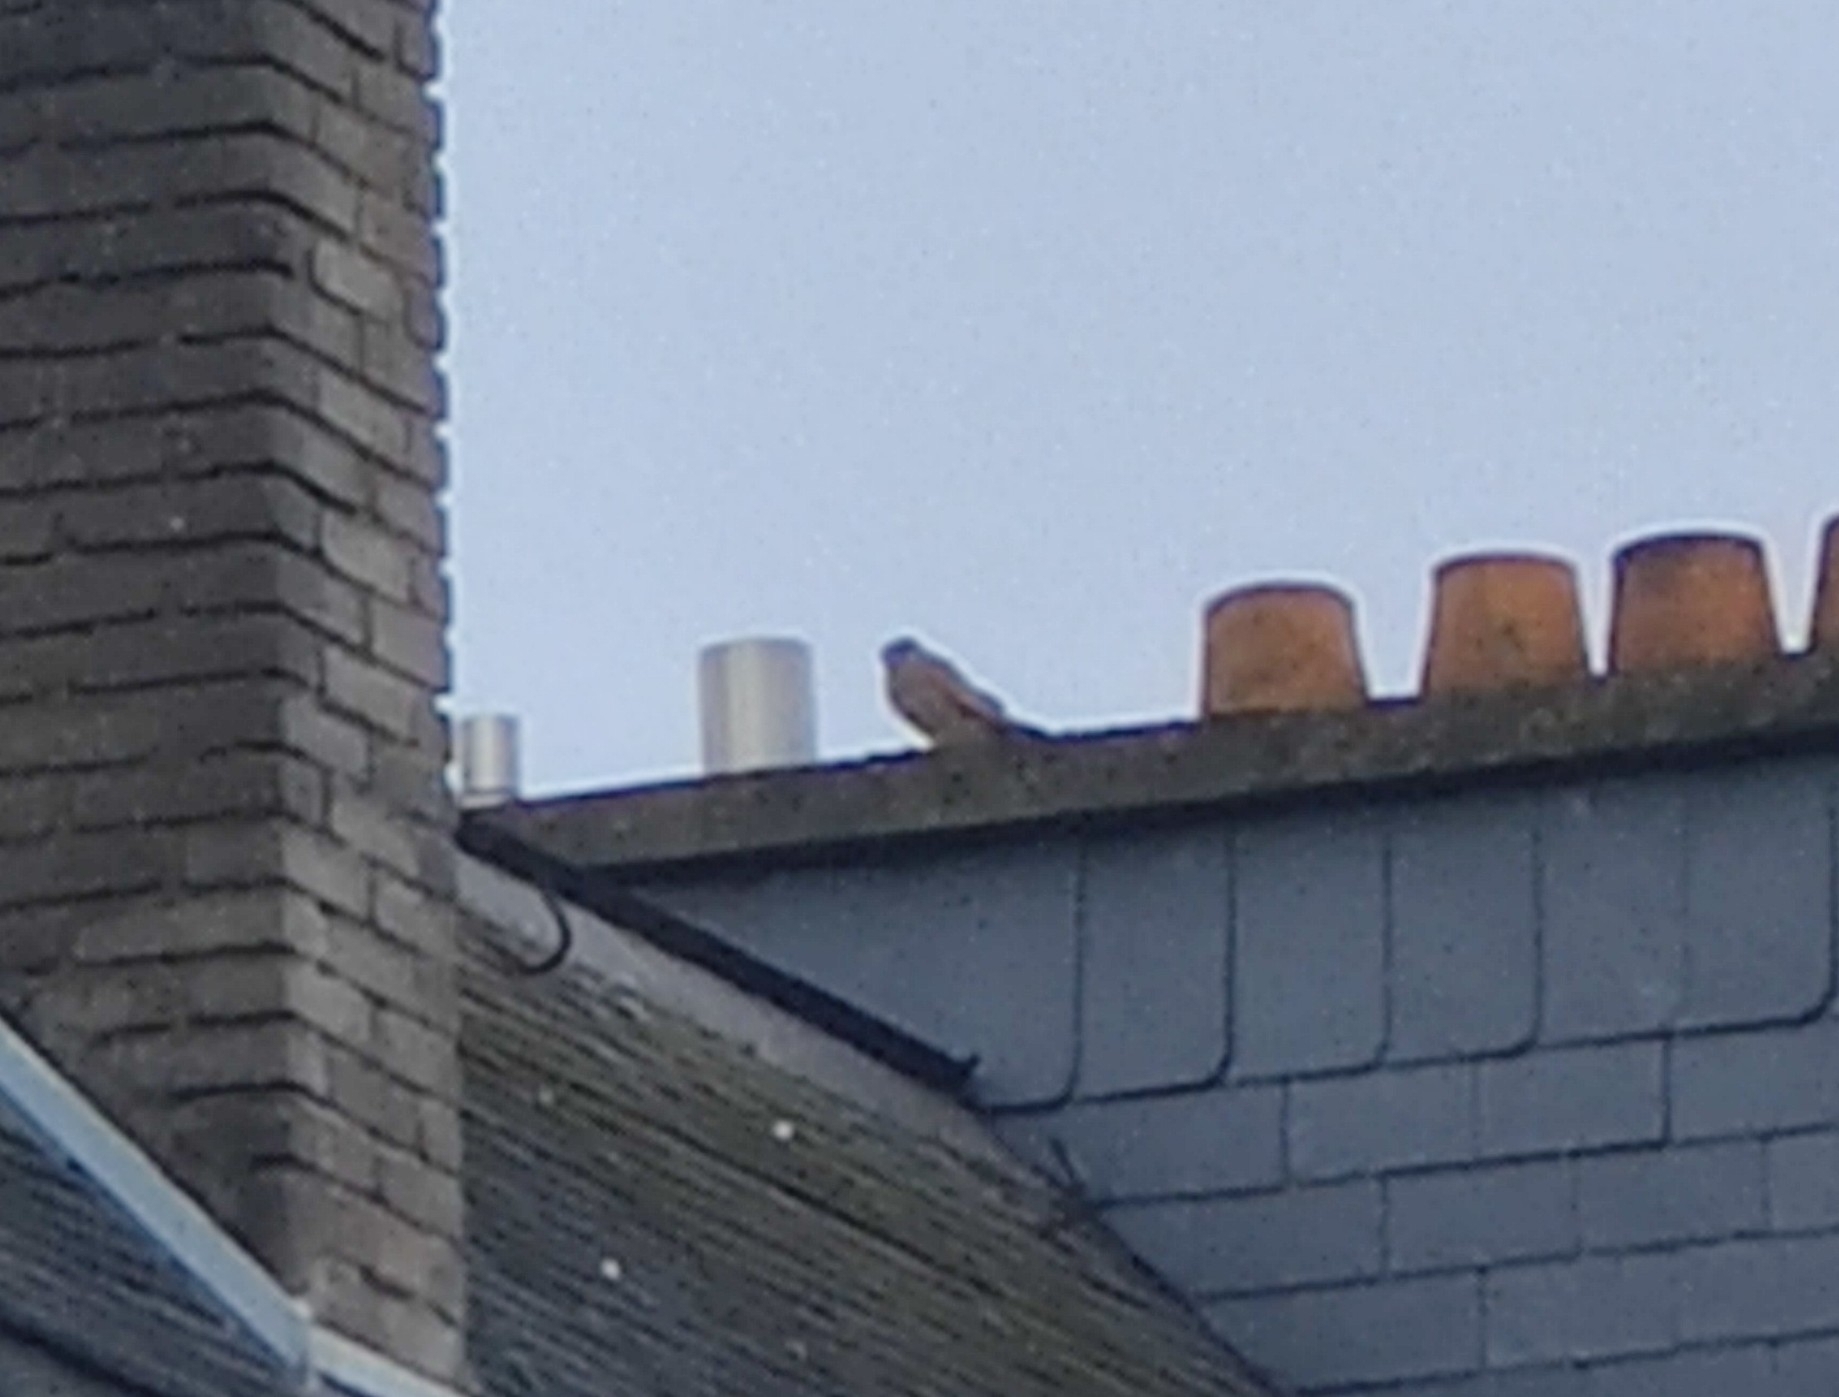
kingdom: Animalia
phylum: Chordata
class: Aves
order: Falconiformes
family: Falconidae
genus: Falco
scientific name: Falco tinnunculus
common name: Common kestrel
